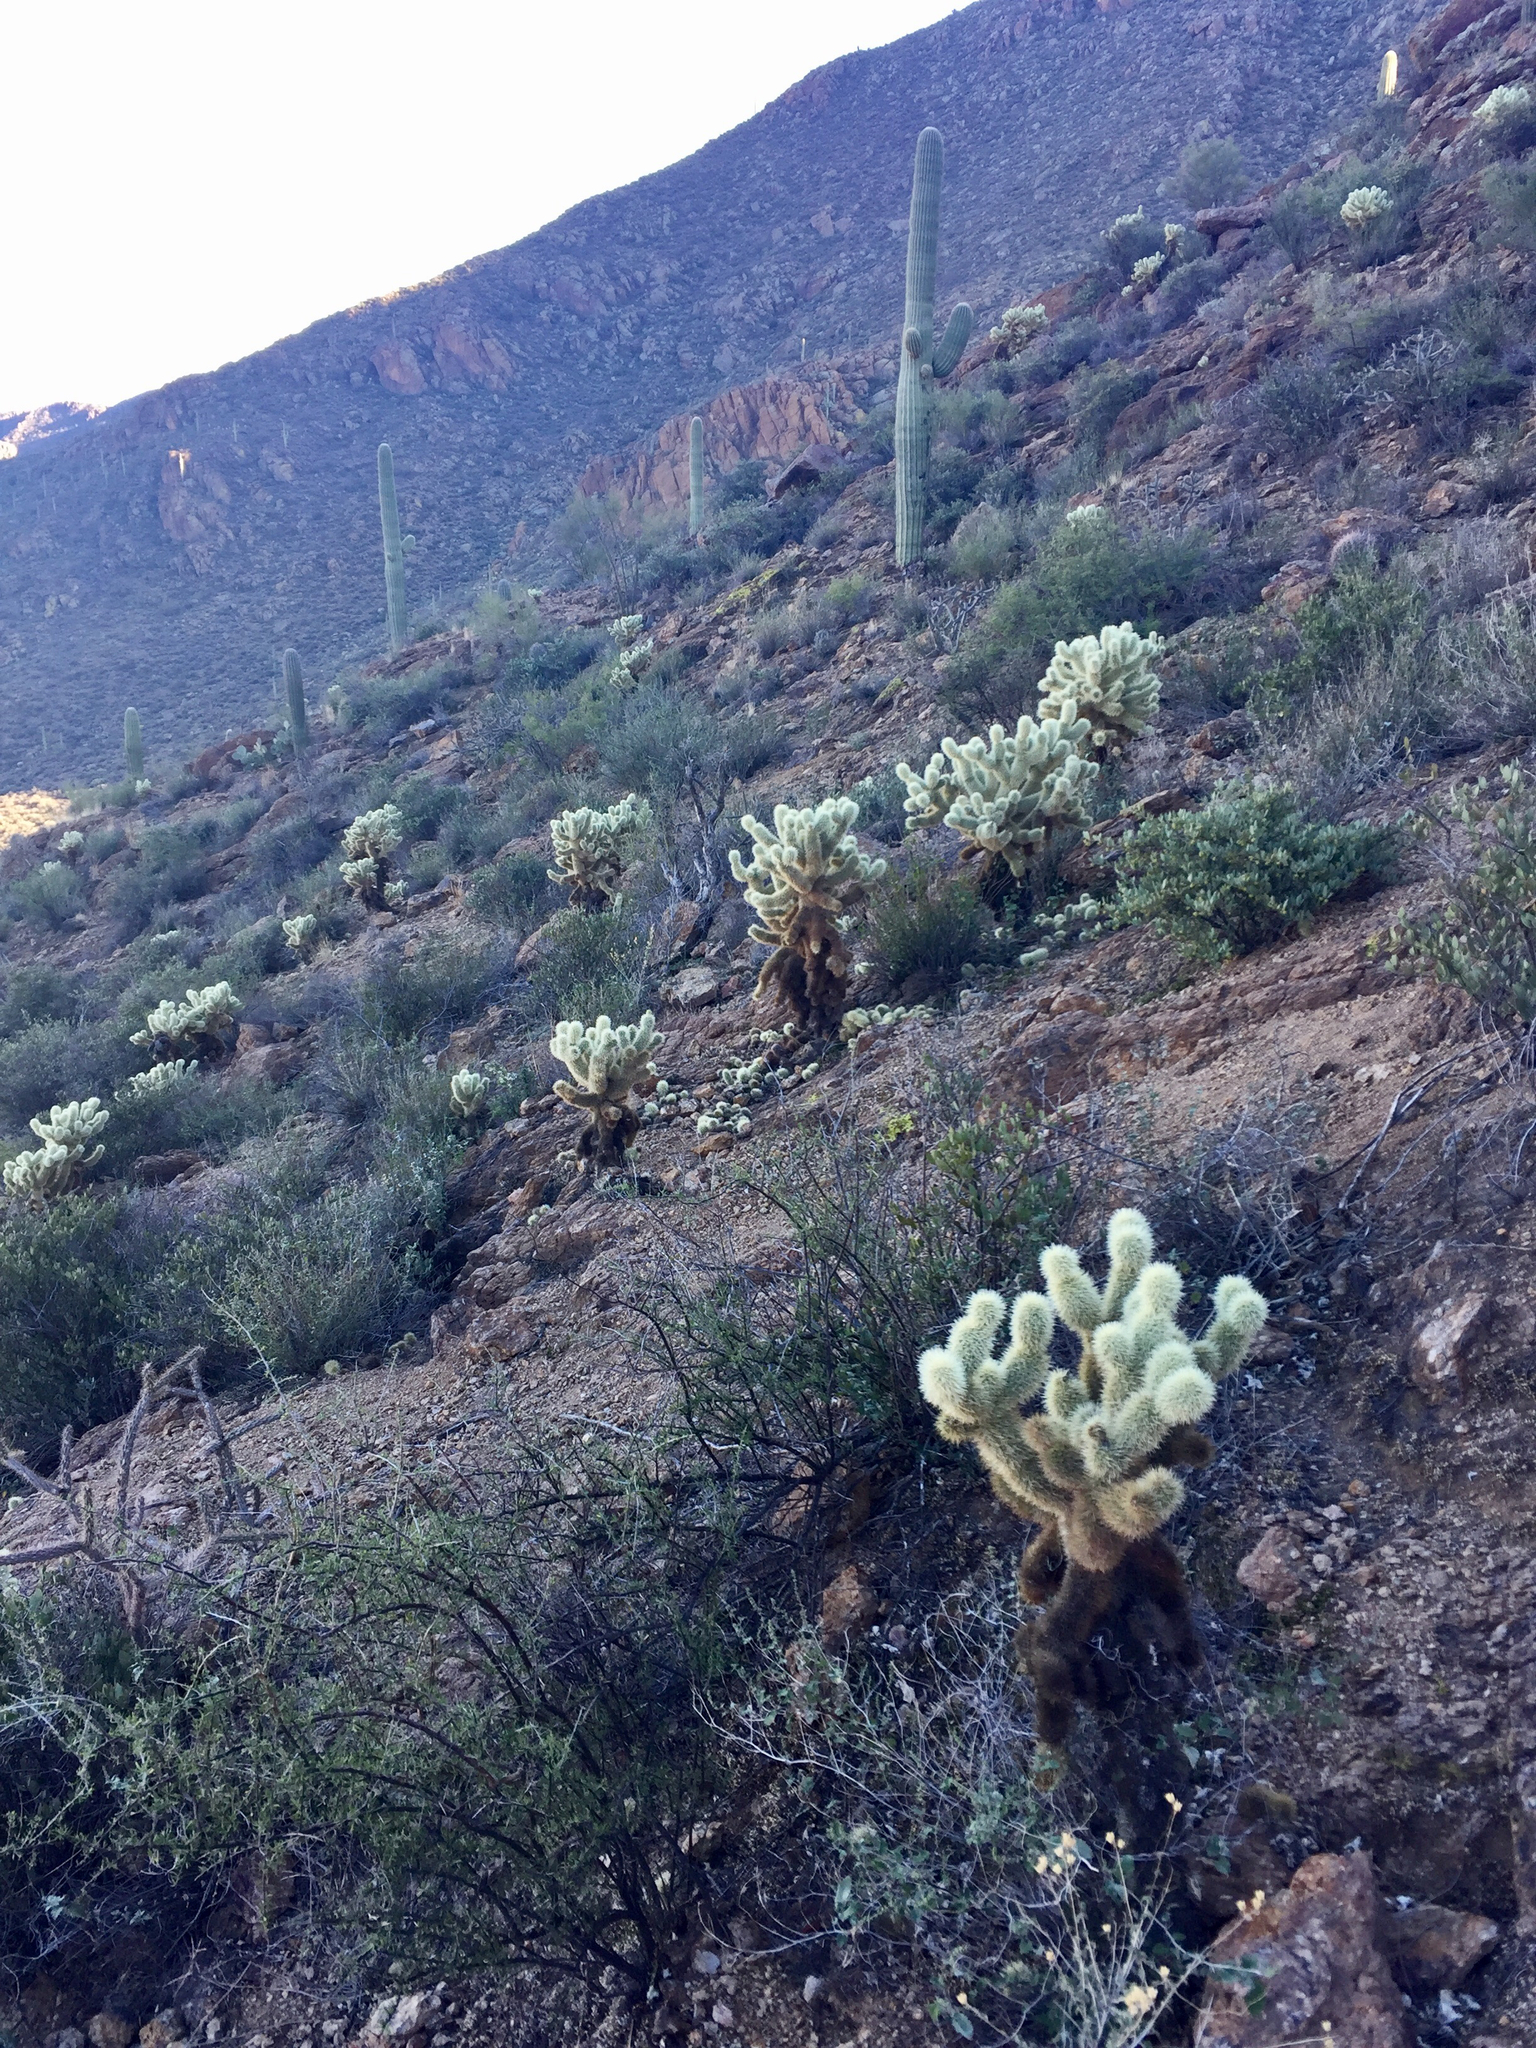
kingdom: Plantae
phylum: Tracheophyta
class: Magnoliopsida
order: Caryophyllales
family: Cactaceae
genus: Cylindropuntia
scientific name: Cylindropuntia fosbergii
